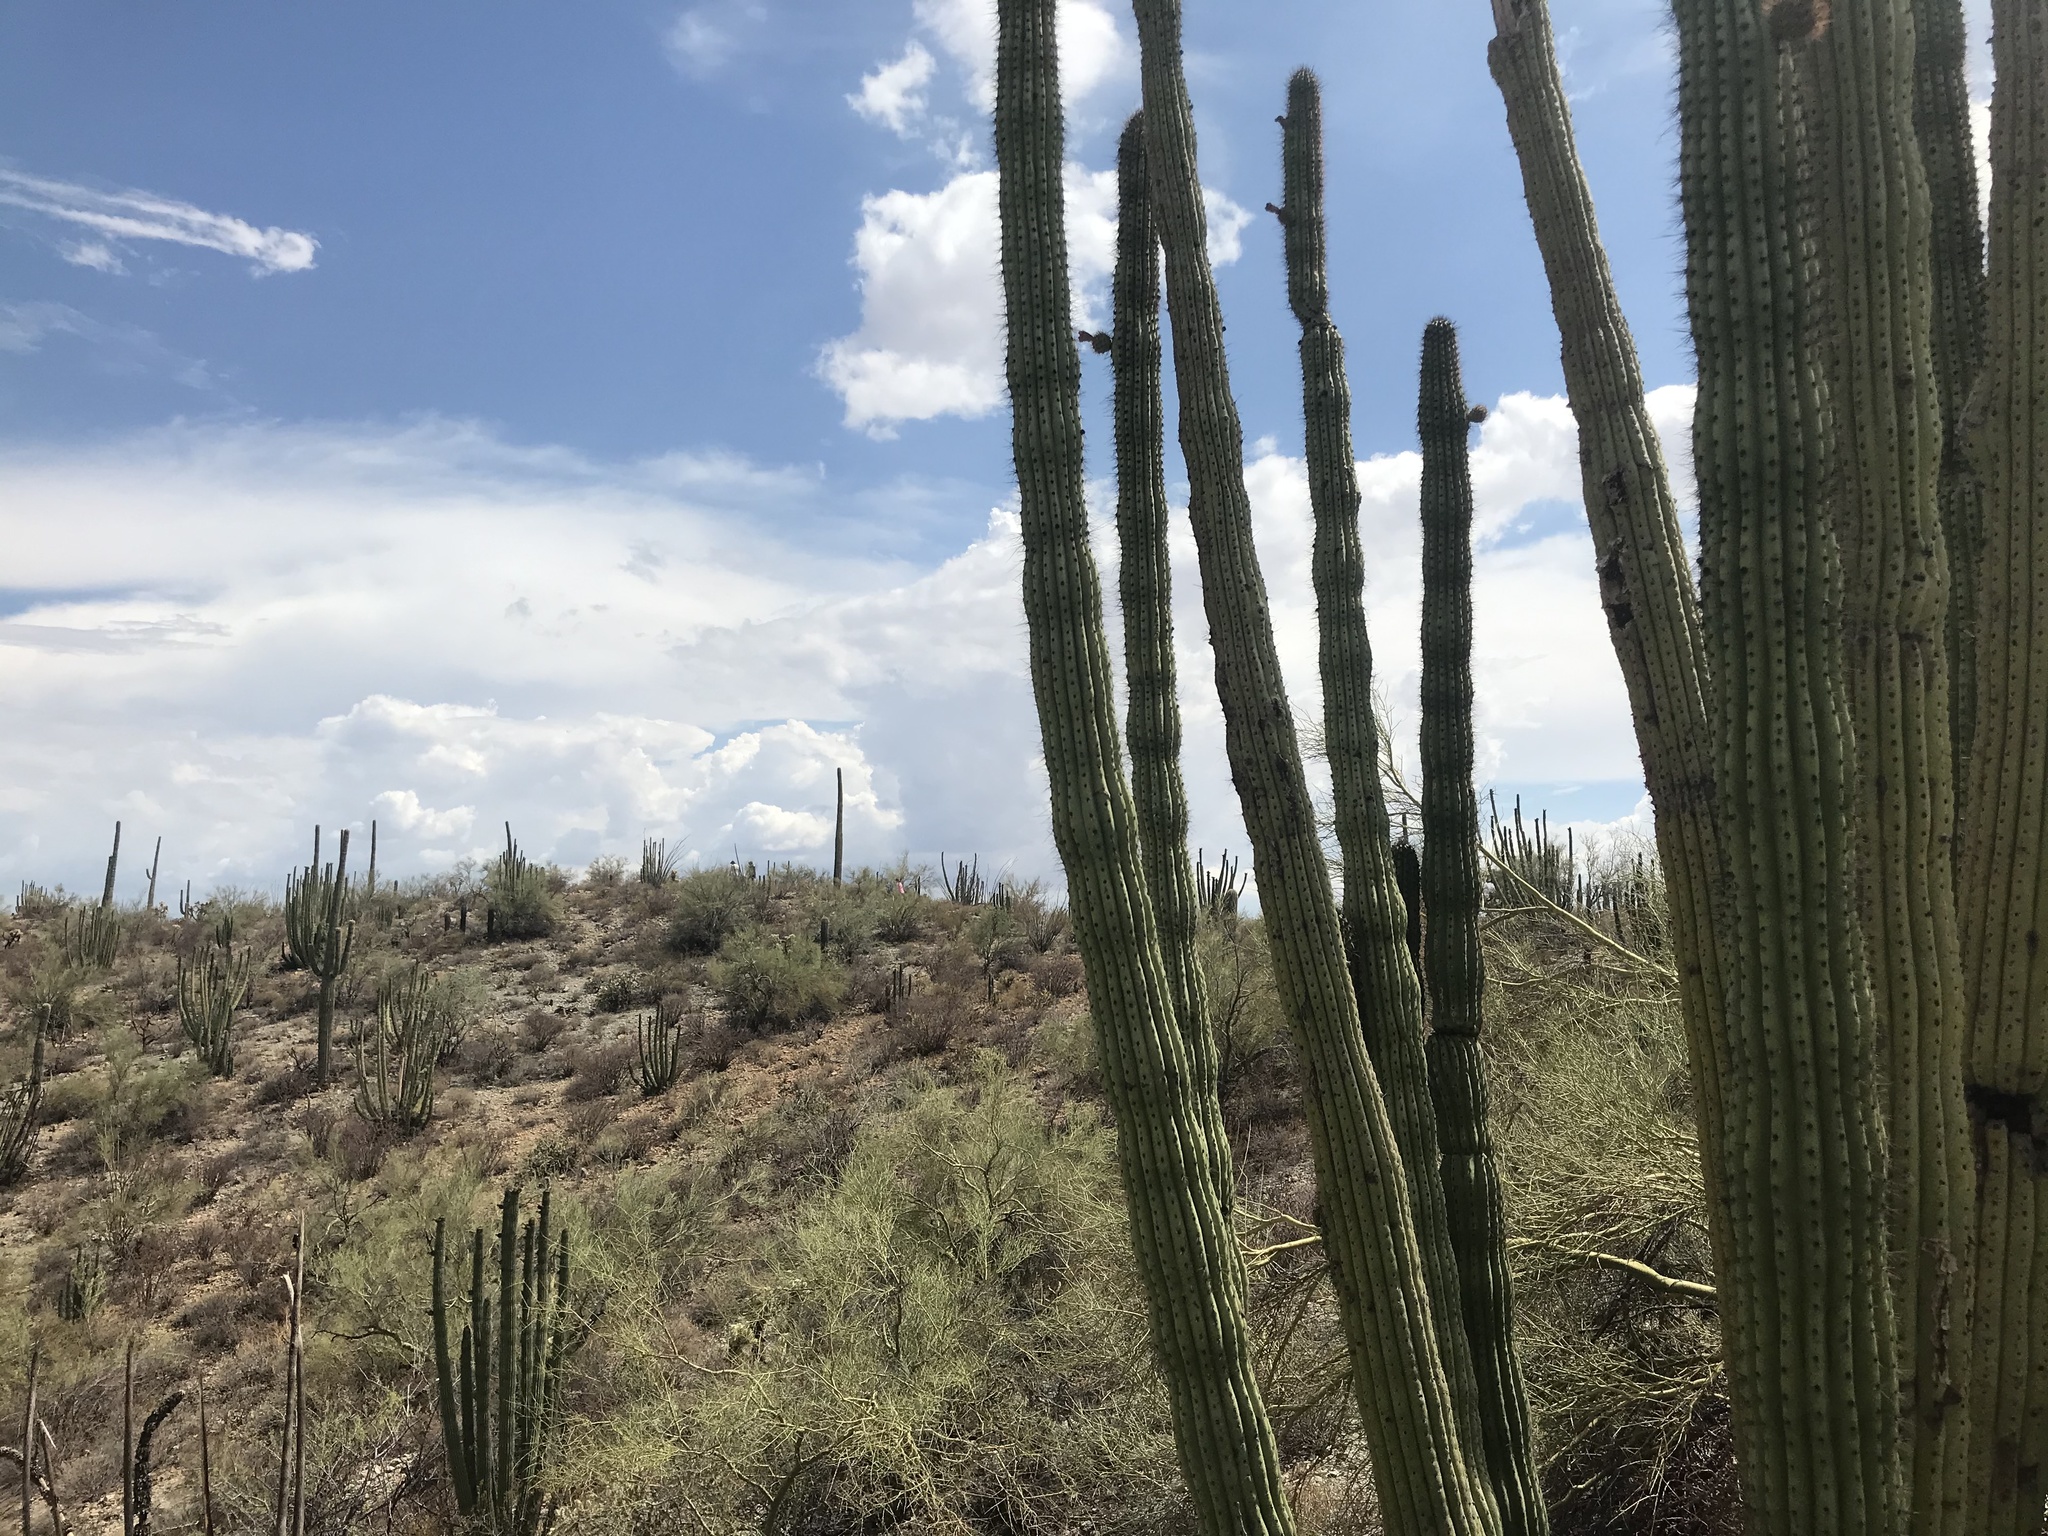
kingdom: Plantae
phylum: Tracheophyta
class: Magnoliopsida
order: Caryophyllales
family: Cactaceae
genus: Stenocereus
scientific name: Stenocereus thurberi
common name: Organ pipe cactus
